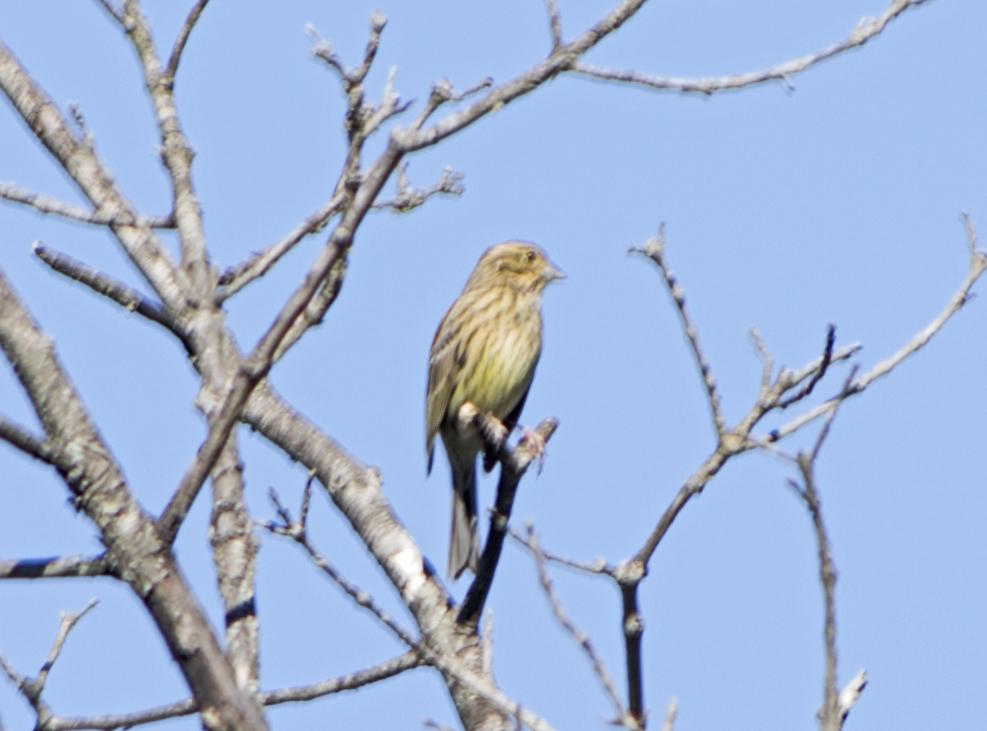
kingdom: Animalia
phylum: Chordata
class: Aves
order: Passeriformes
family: Emberizidae
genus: Emberiza
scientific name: Emberiza cirlus
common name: Cirl bunting
